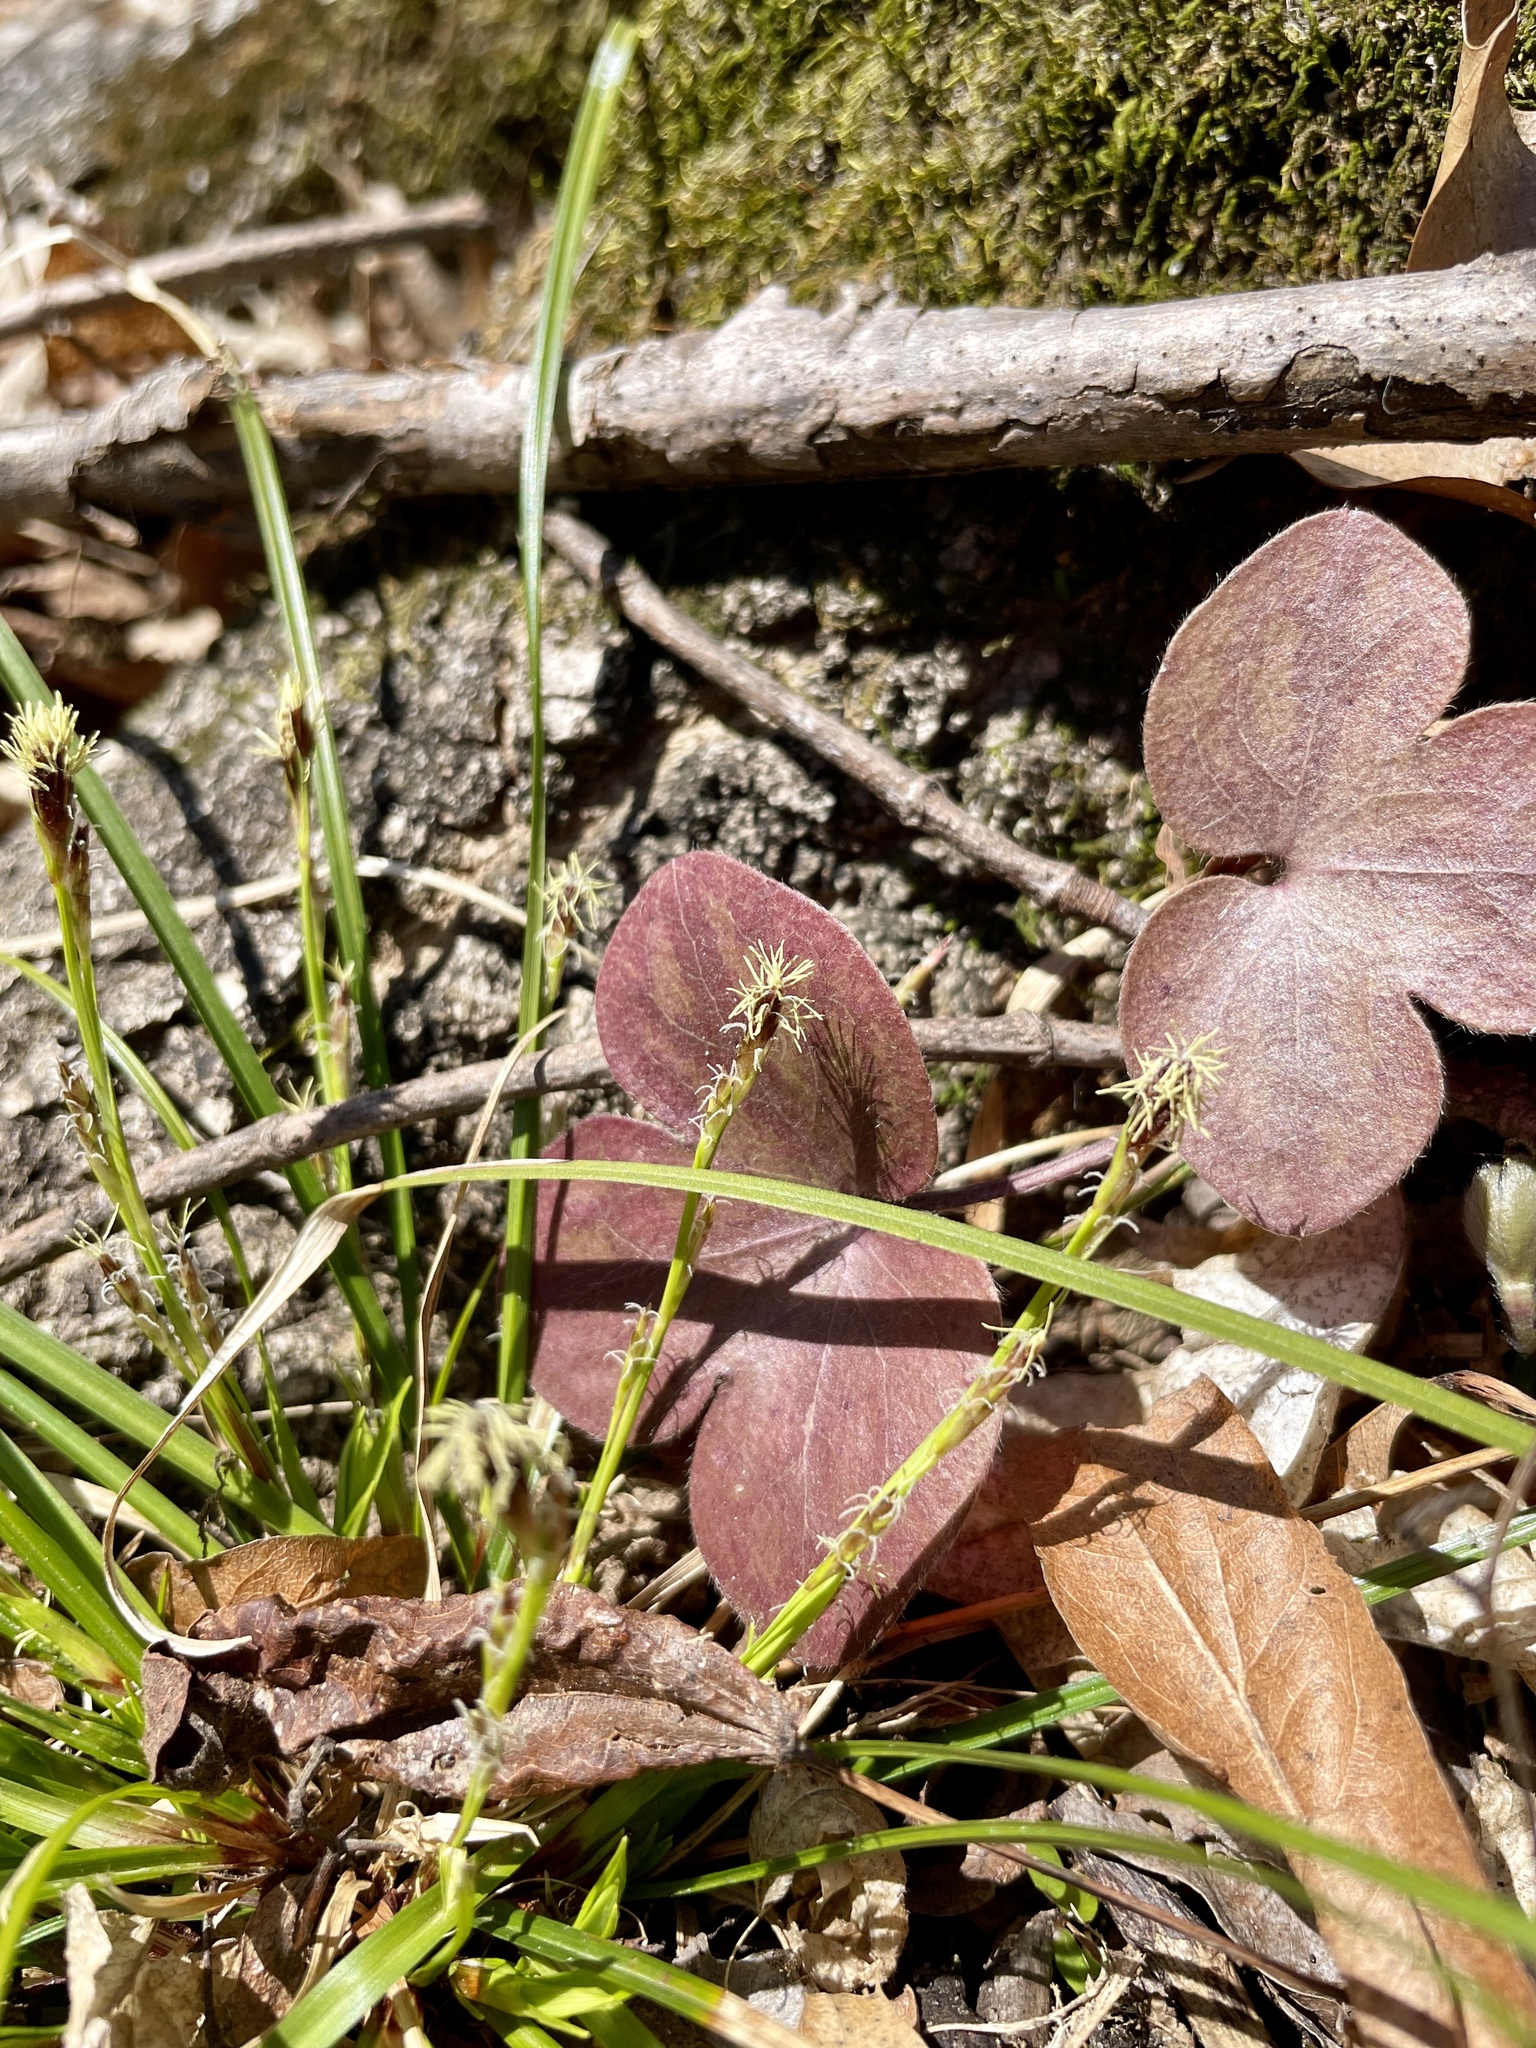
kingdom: Plantae
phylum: Tracheophyta
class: Liliopsida
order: Poales
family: Cyperaceae
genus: Carex
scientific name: Carex pedunculata
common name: Pedunculate sedge
